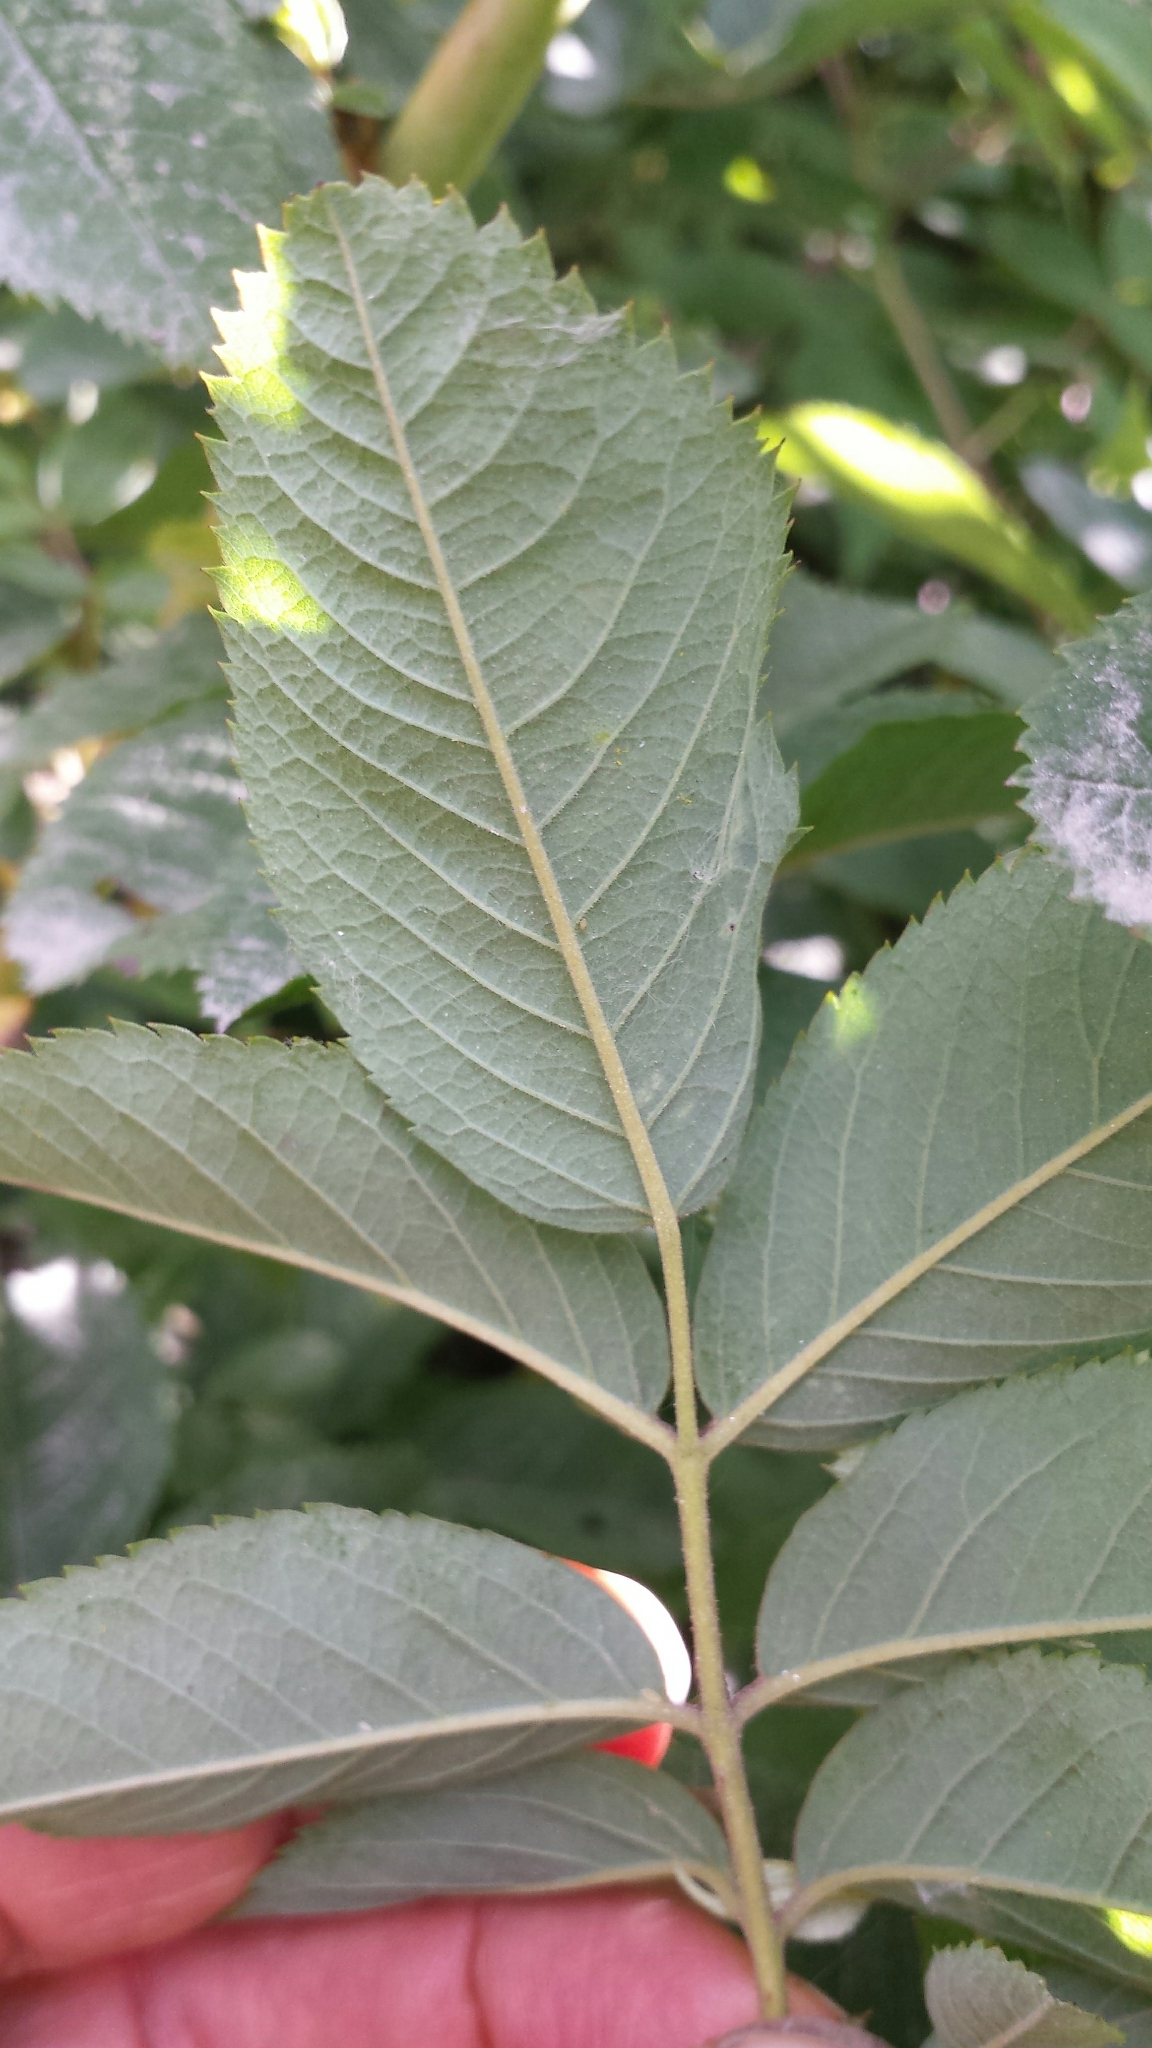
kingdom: Plantae
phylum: Tracheophyta
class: Magnoliopsida
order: Rosales
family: Rosaceae
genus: Rosa
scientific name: Rosa sherardii
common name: Sherard's downy rose
